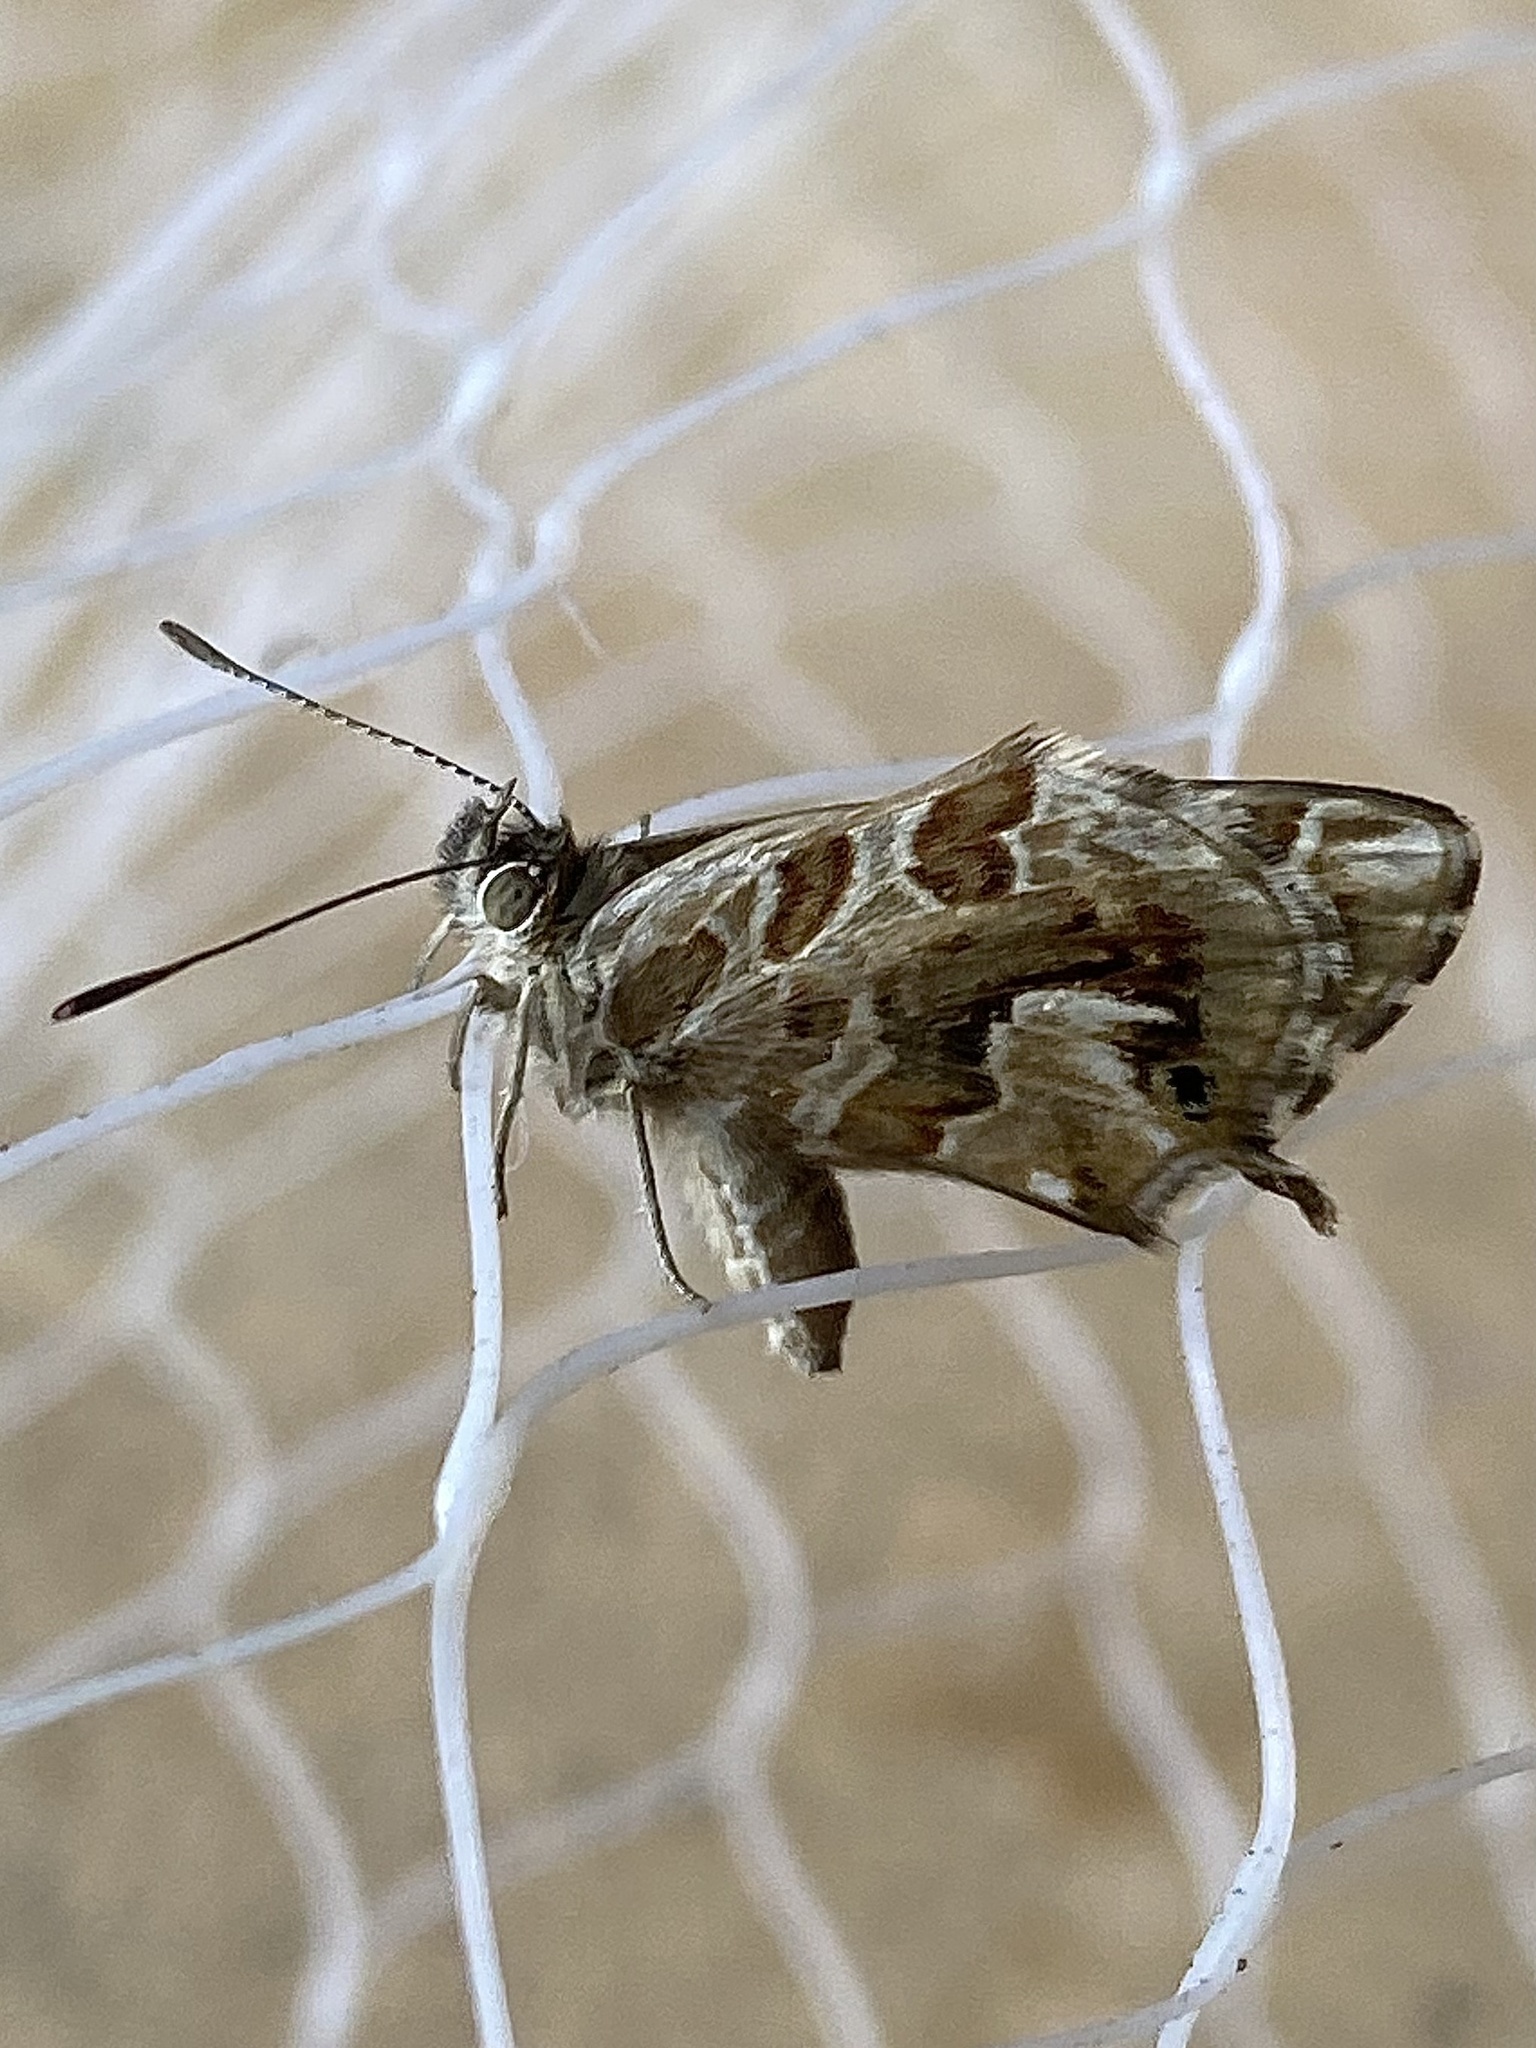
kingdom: Animalia
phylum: Arthropoda
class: Insecta
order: Lepidoptera
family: Lycaenidae
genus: Cacyreus
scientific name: Cacyreus marshalli
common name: Geranium bronze
